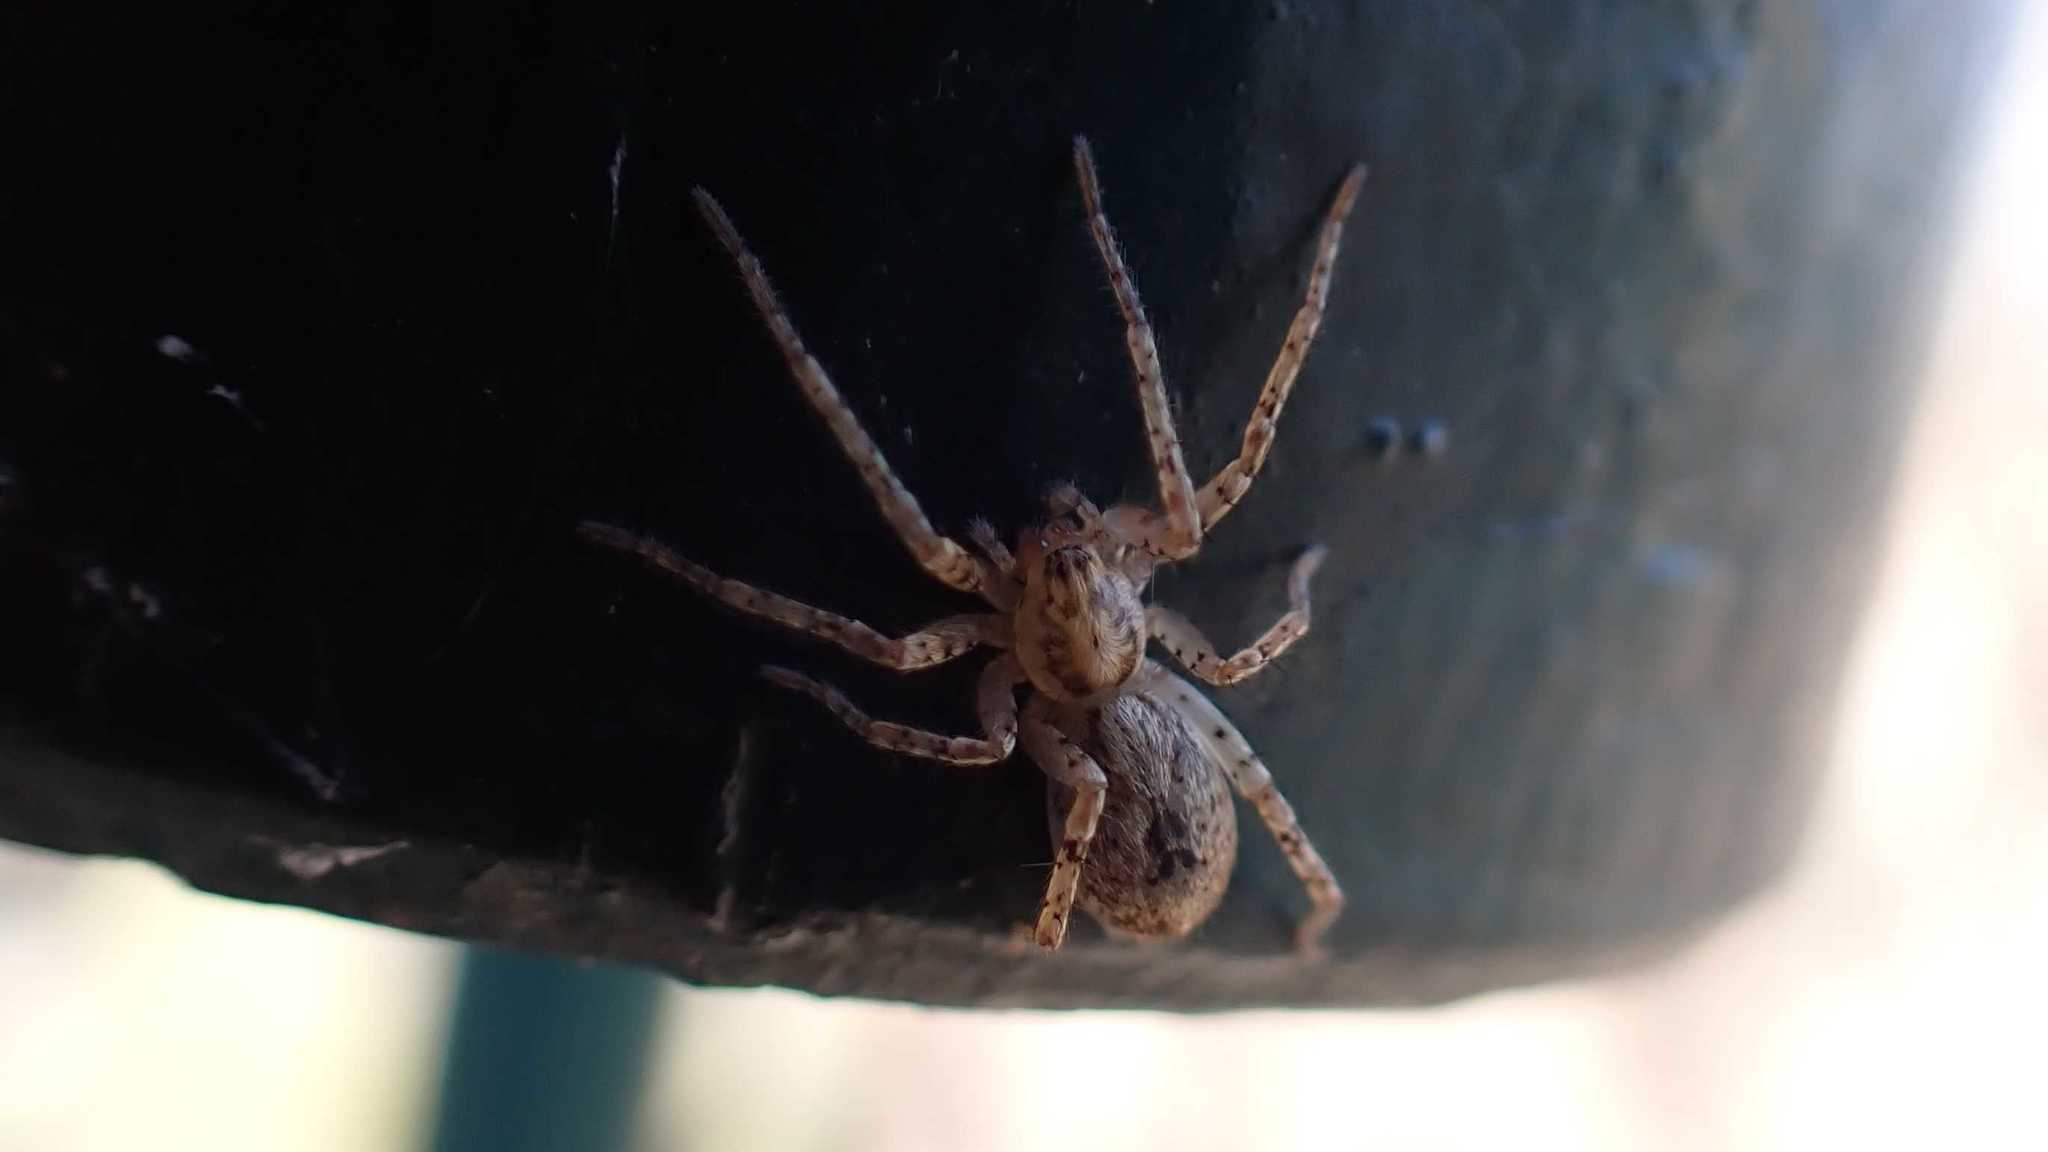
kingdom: Animalia
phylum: Arthropoda
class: Arachnida
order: Araneae
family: Anyphaenidae
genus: Anyphaena
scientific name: Anyphaena accentuata
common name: Buzzing spider
